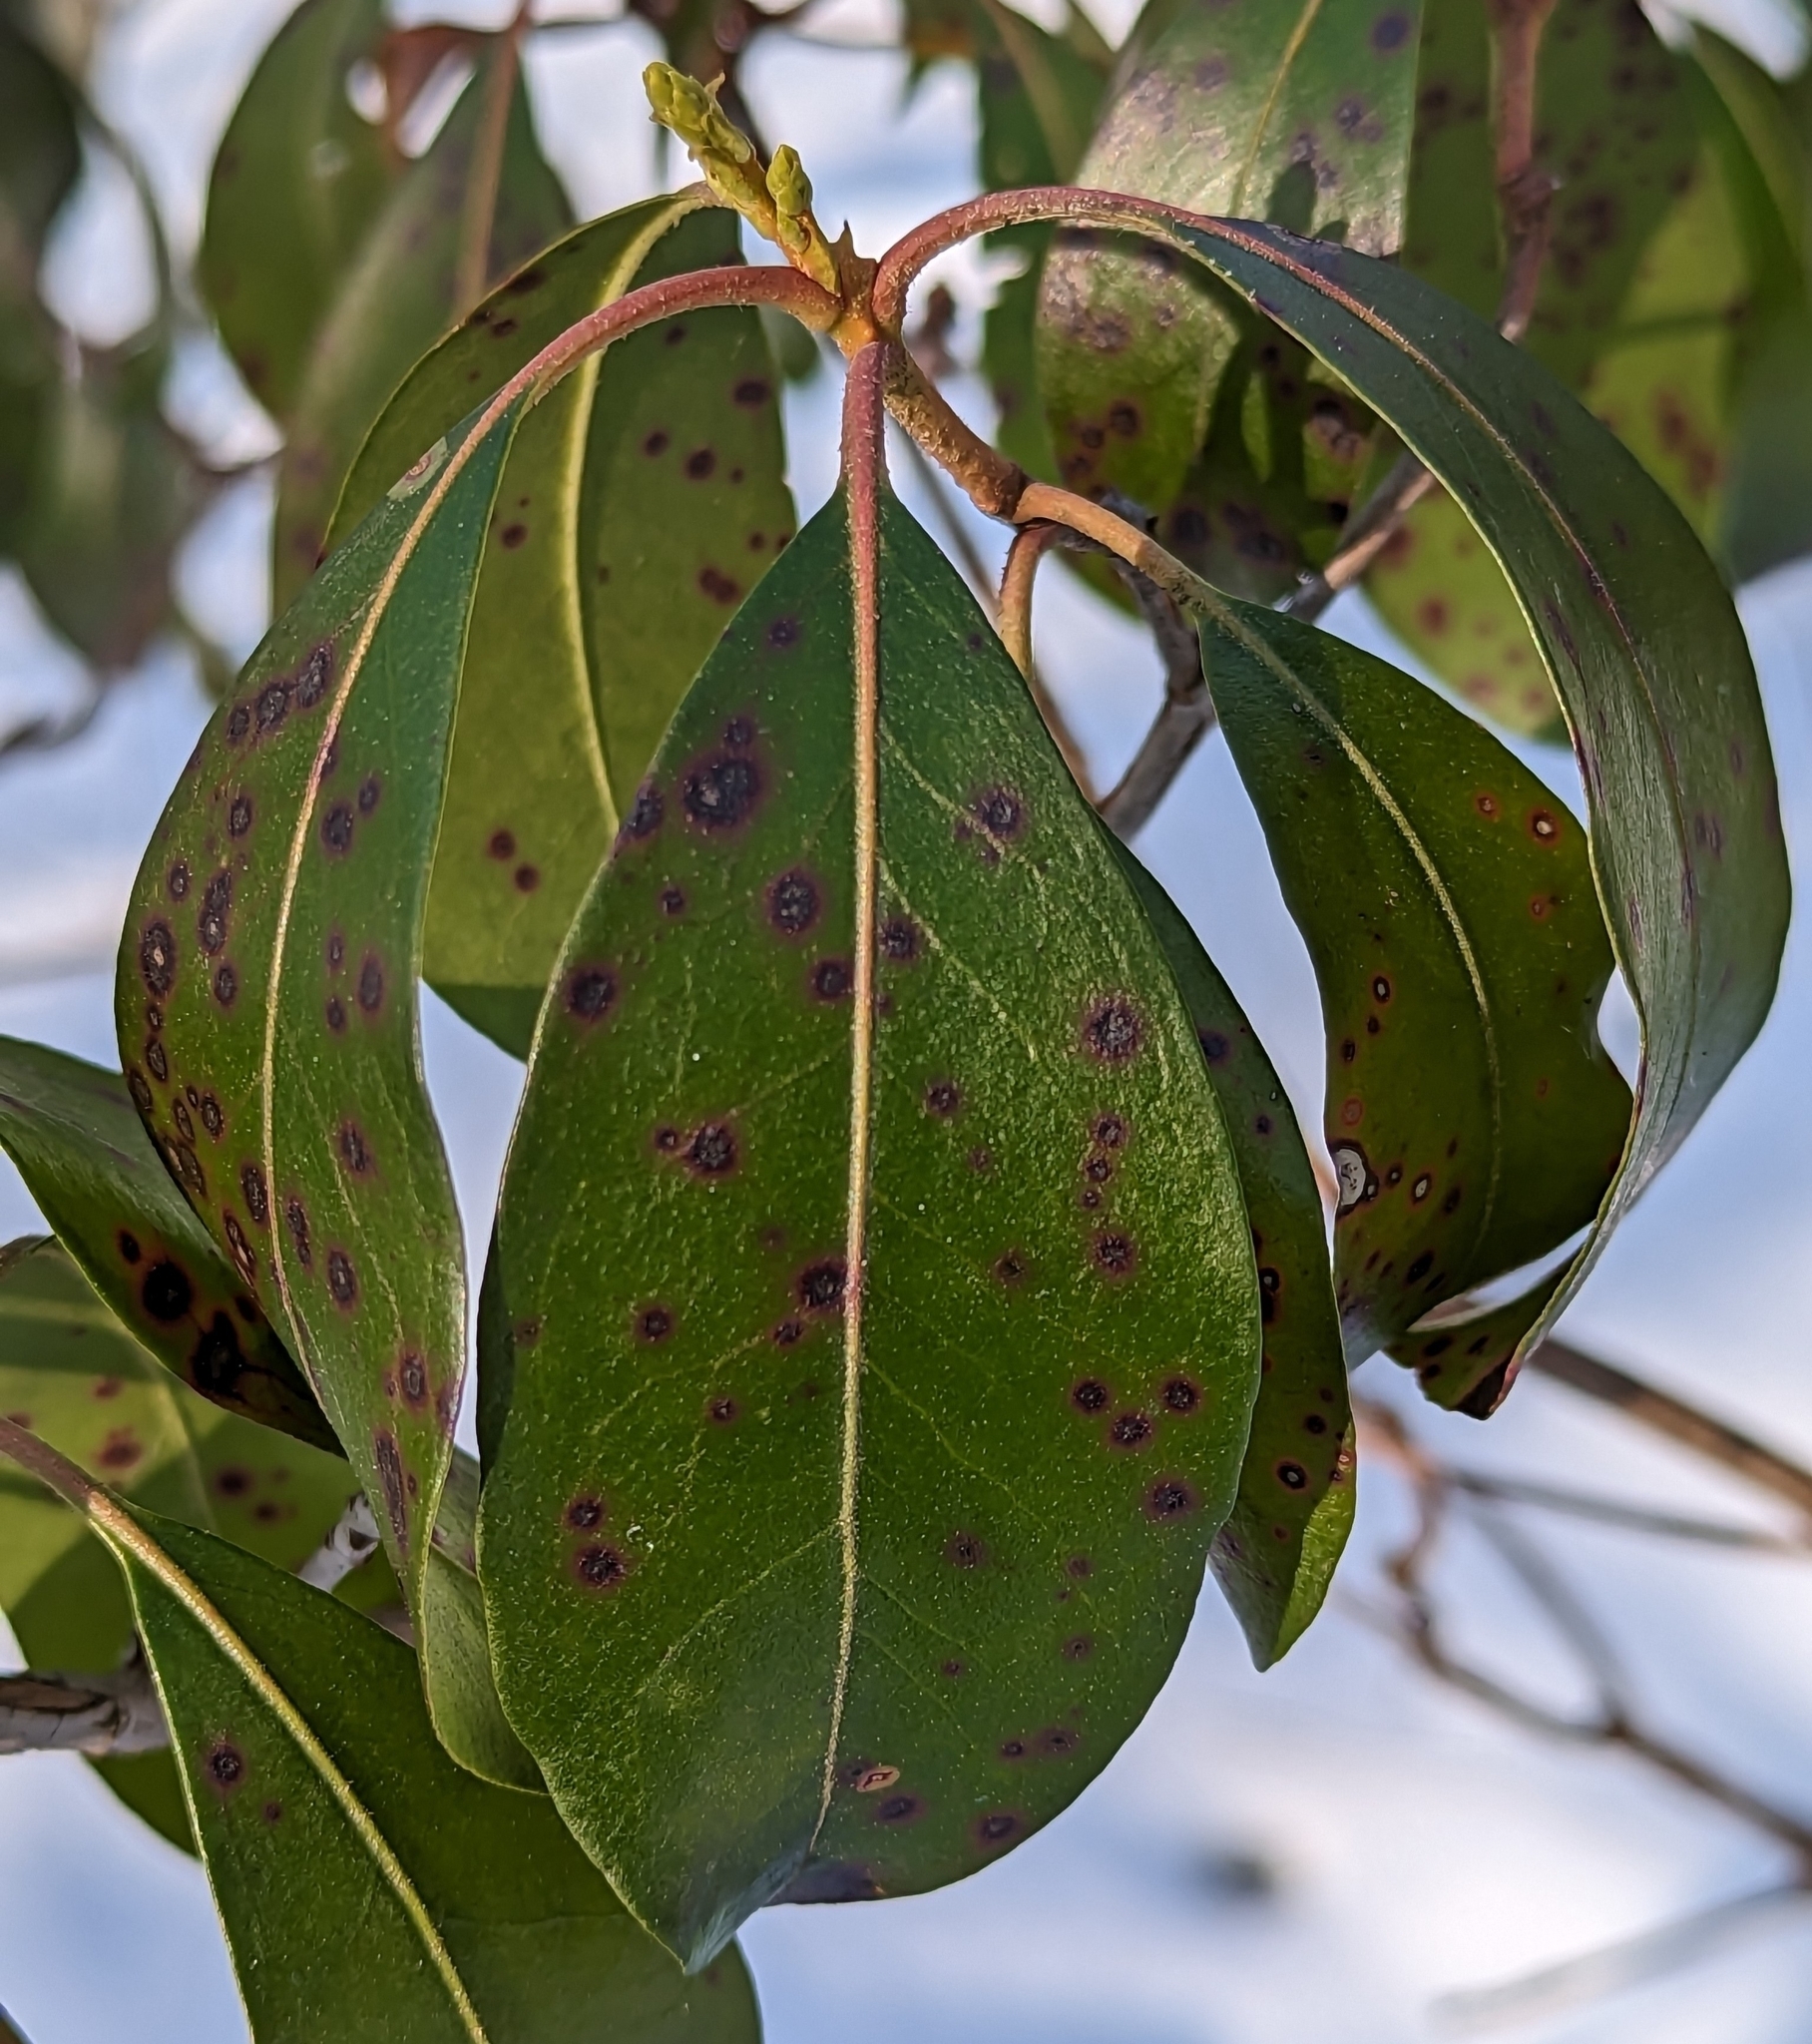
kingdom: Plantae
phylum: Tracheophyta
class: Magnoliopsida
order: Ericales
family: Ericaceae
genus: Kalmia
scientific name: Kalmia latifolia
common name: Mountain-laurel
